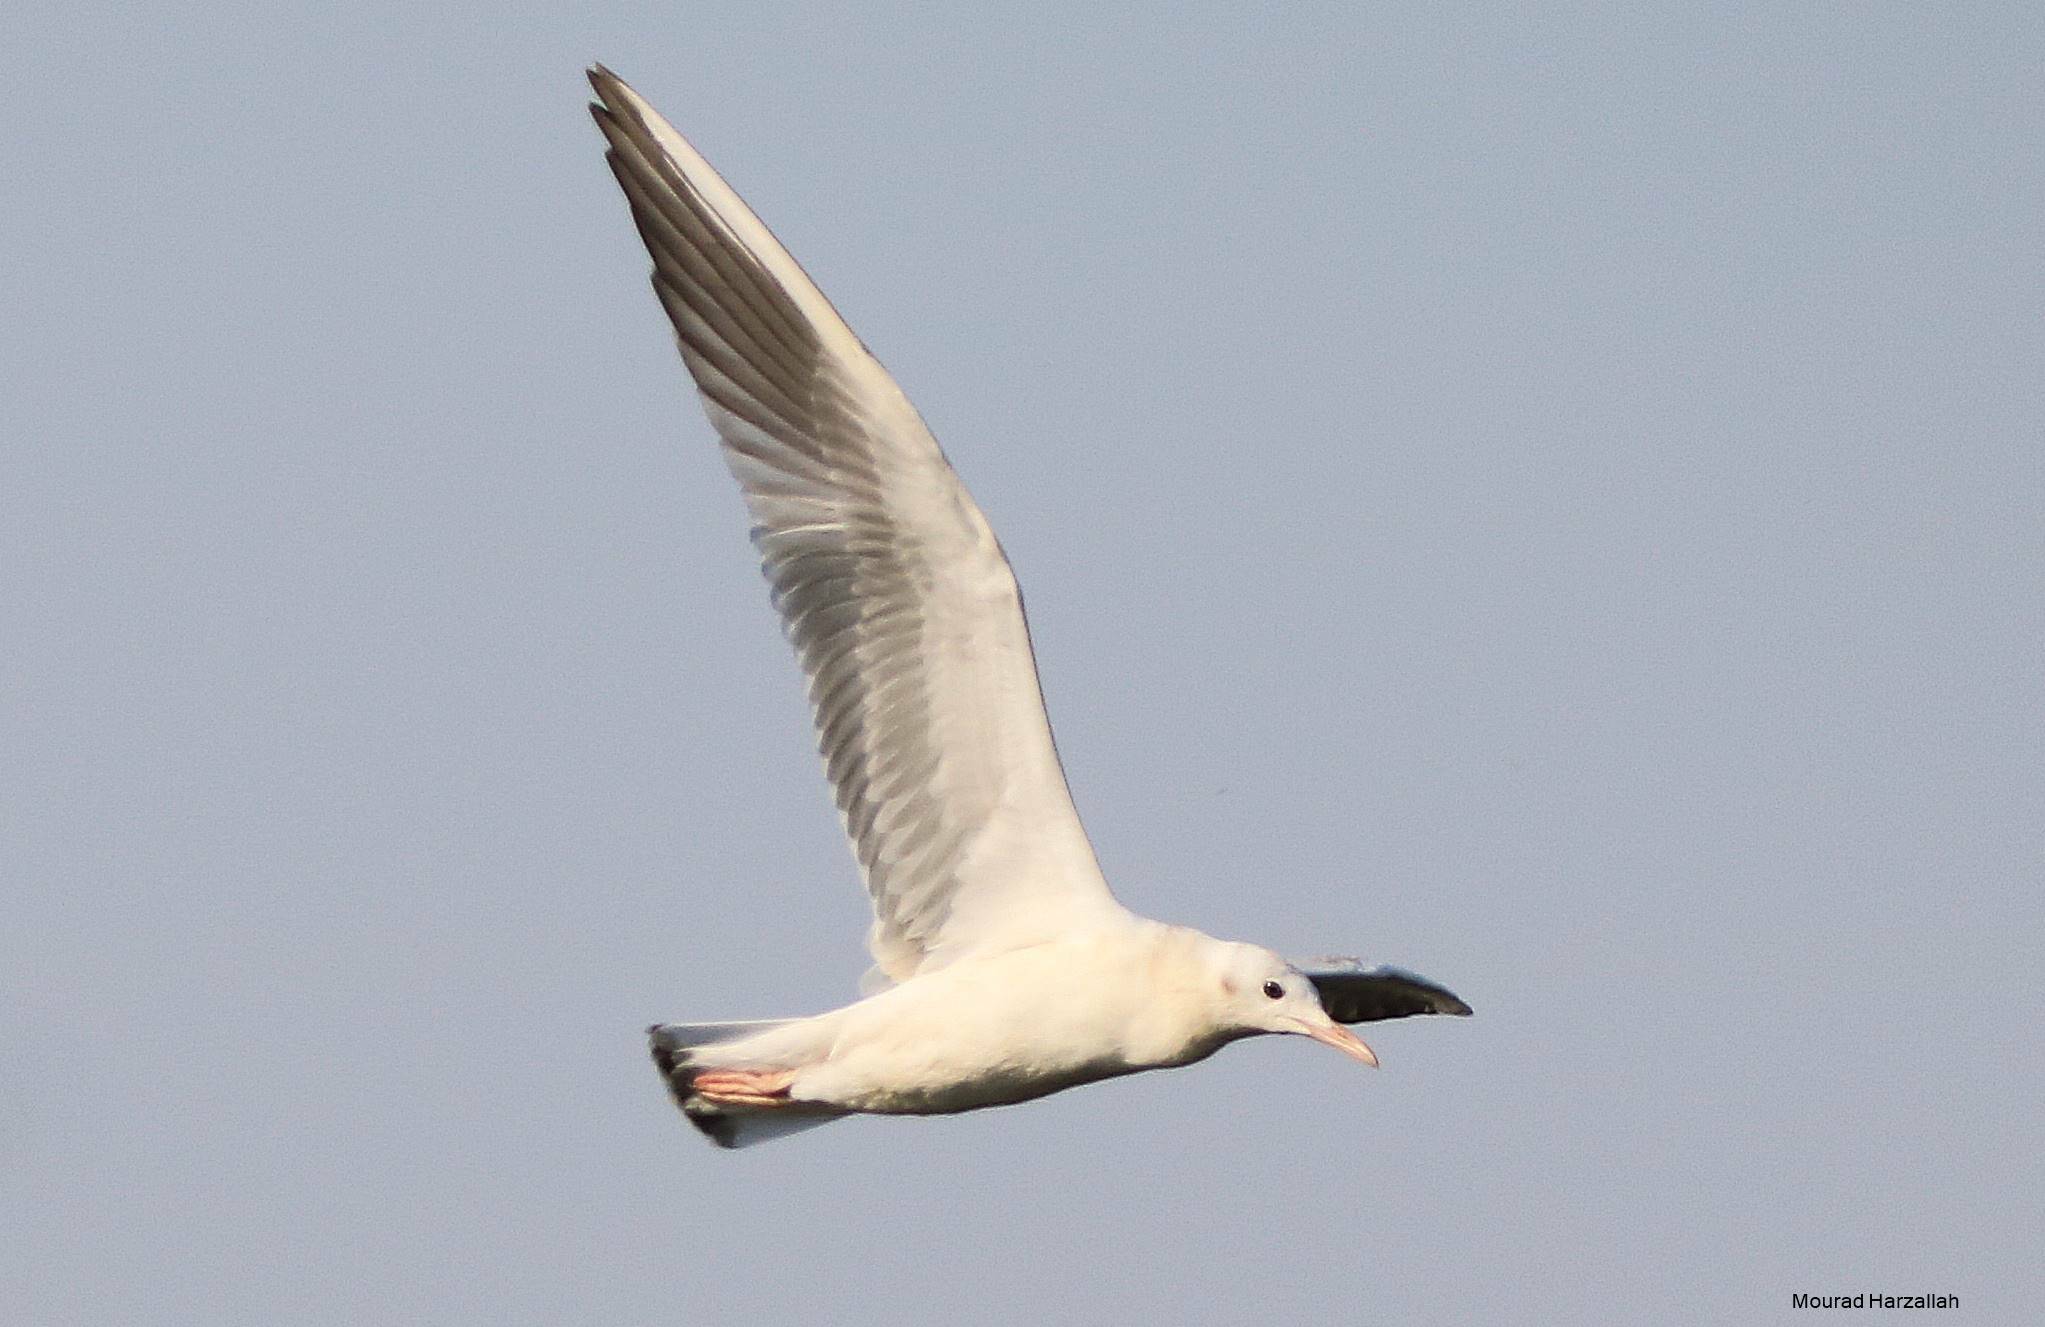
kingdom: Animalia
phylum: Chordata
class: Aves
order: Charadriiformes
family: Laridae
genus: Chroicocephalus
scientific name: Chroicocephalus genei
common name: Slender-billed gull
